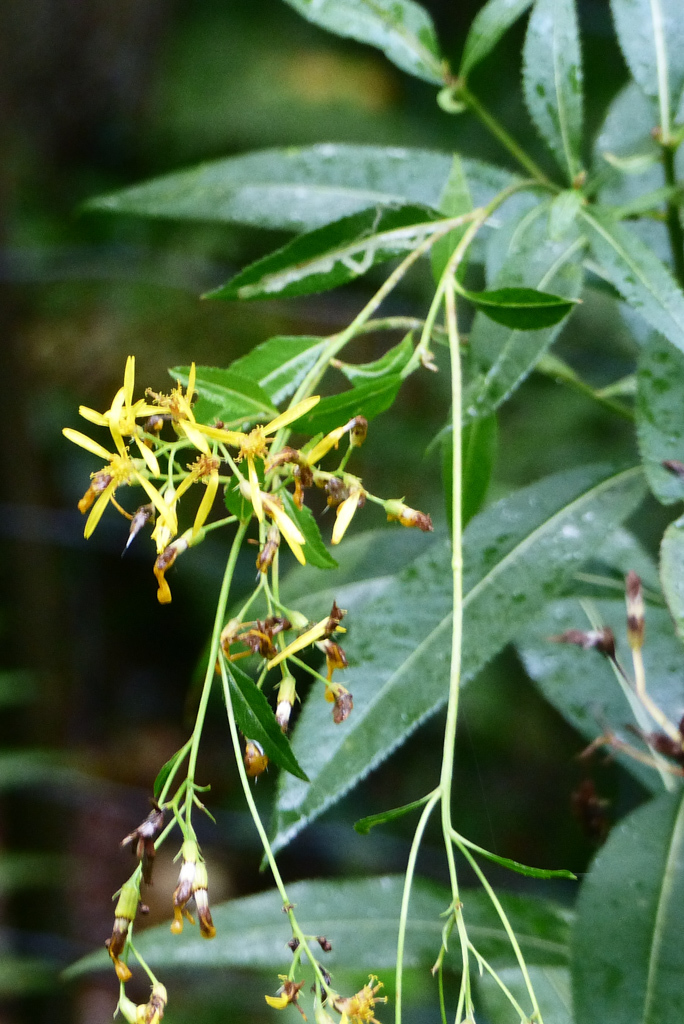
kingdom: Plantae
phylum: Tracheophyta
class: Magnoliopsida
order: Asterales
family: Asteraceae
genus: Senecio
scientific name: Senecio ovatus
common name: Wood ragwort
